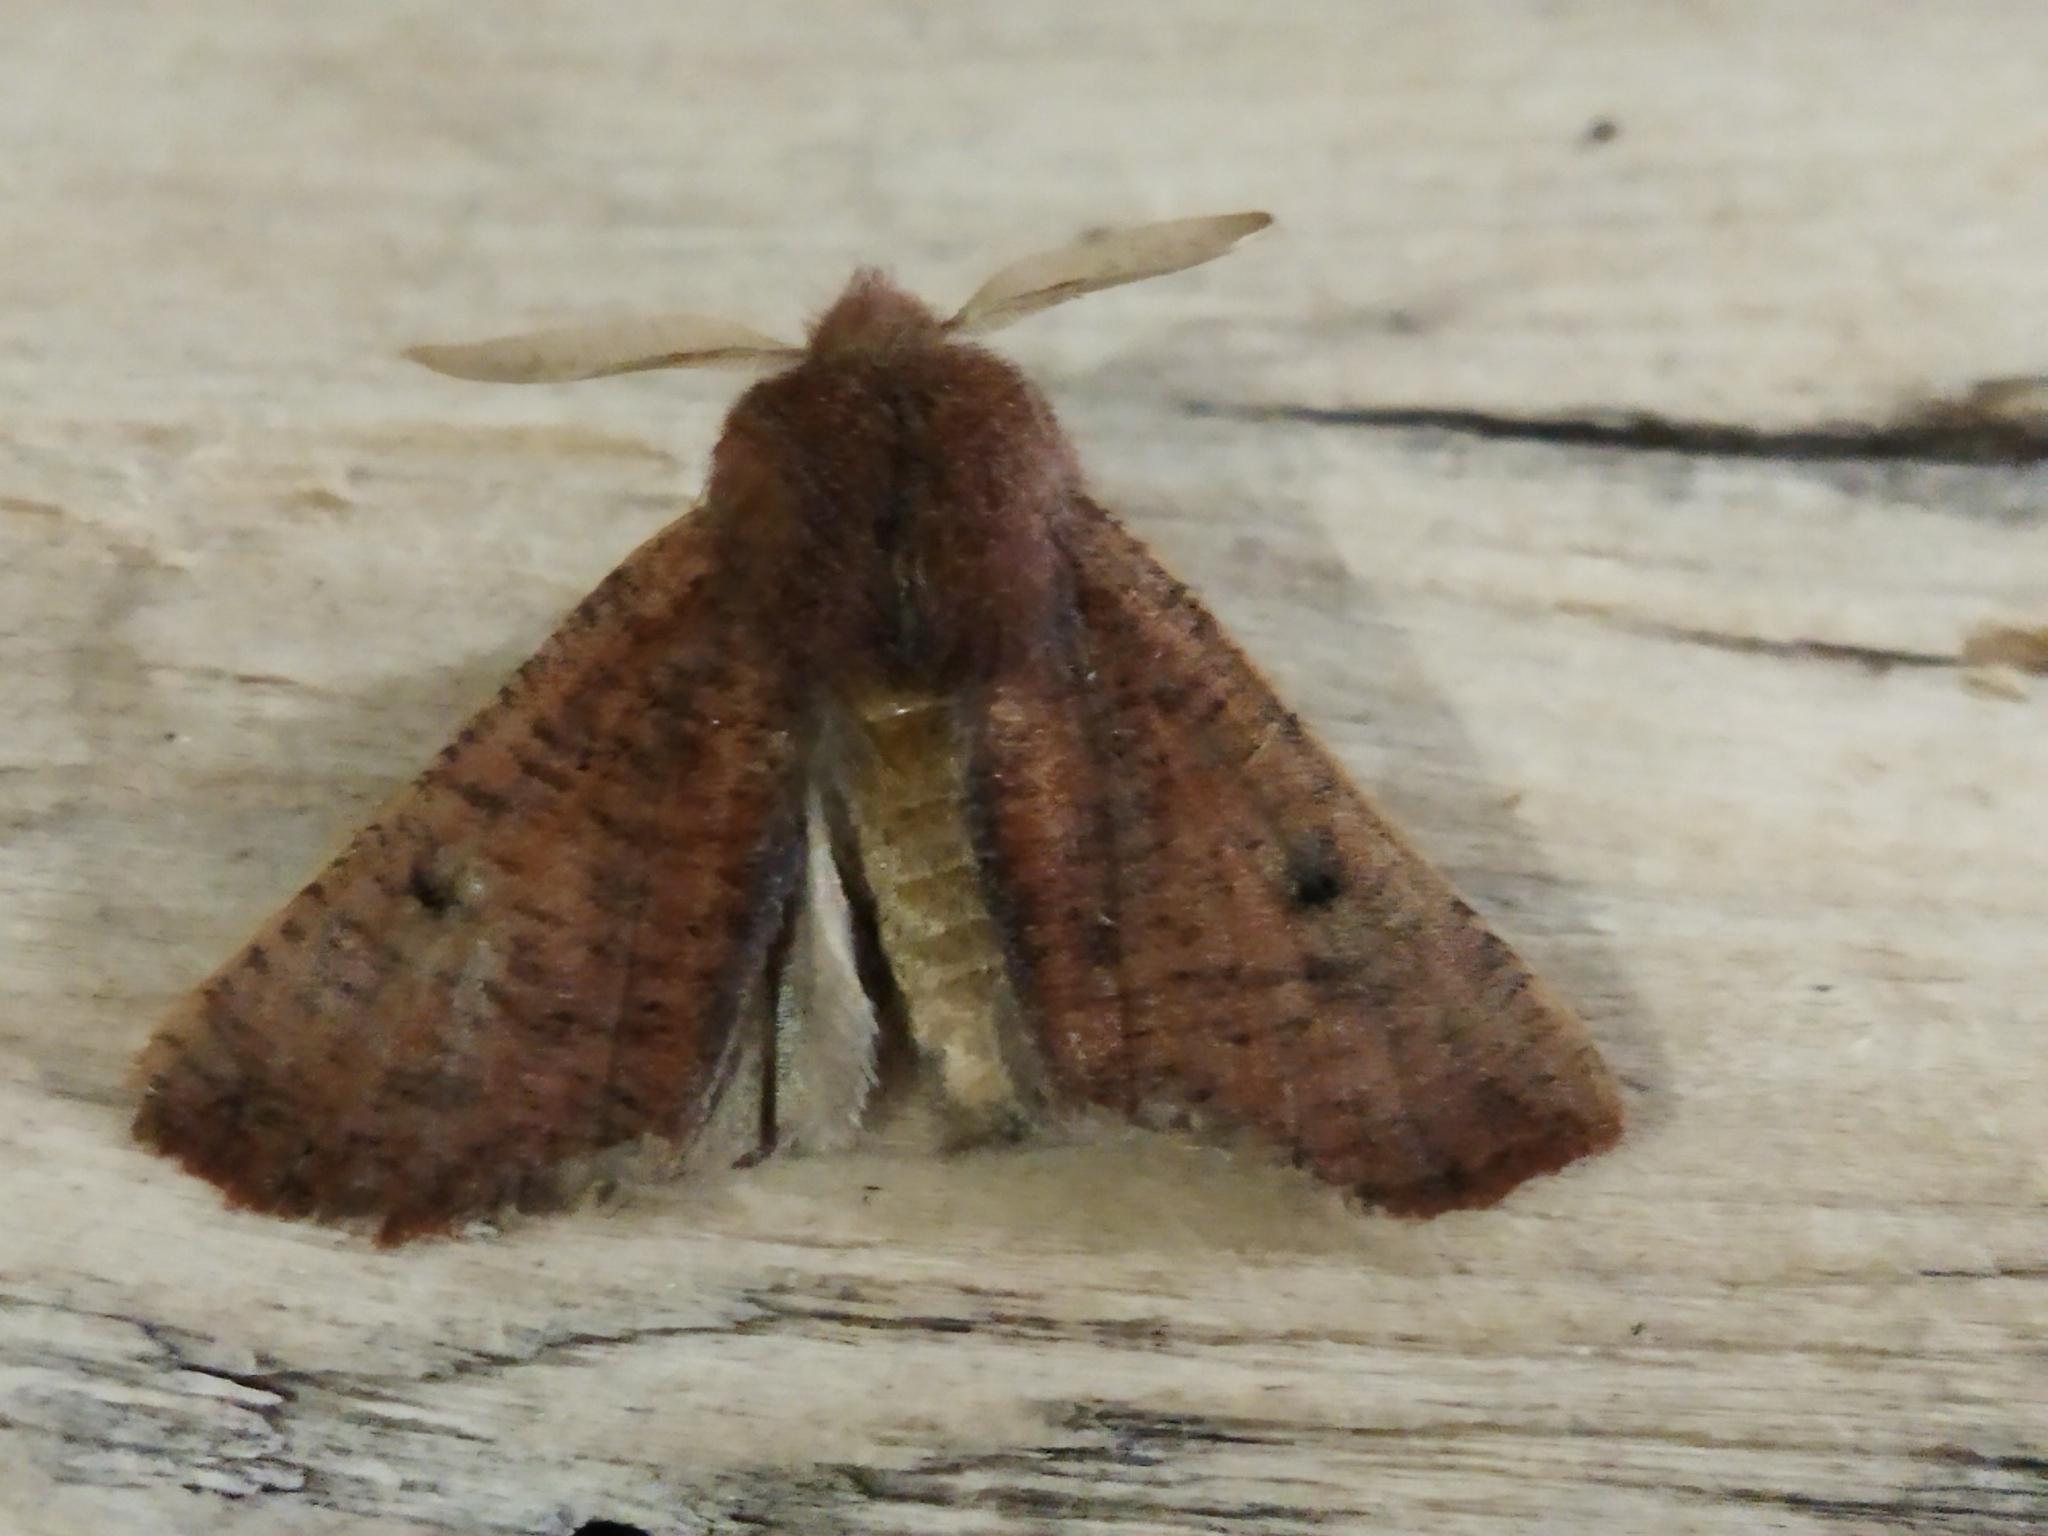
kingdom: Animalia
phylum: Arthropoda
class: Insecta
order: Lepidoptera
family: Geometridae
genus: Dasycorsa
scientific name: Dasycorsa modesta
